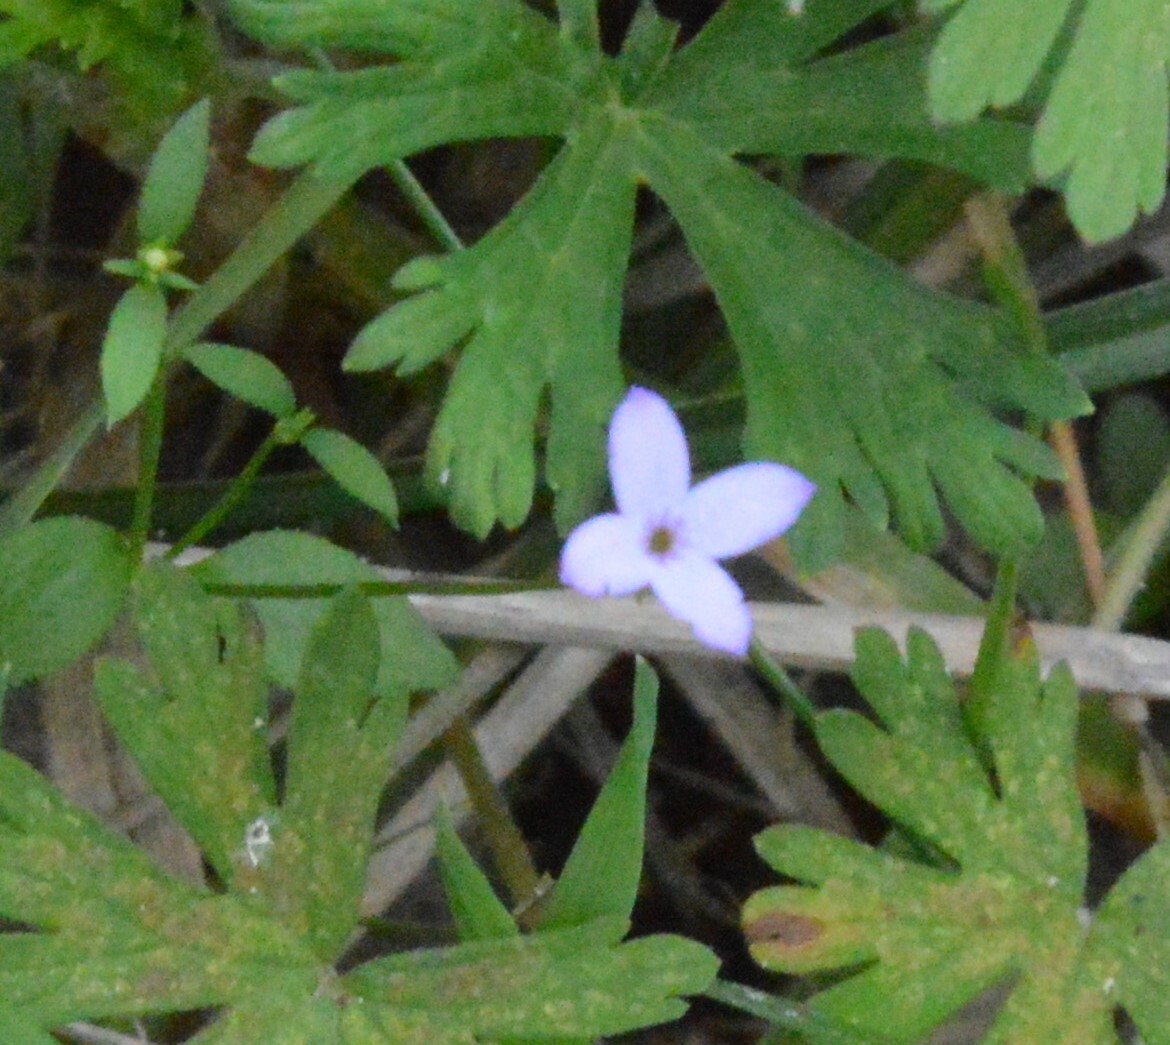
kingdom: Plantae
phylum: Tracheophyta
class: Magnoliopsida
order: Gentianales
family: Rubiaceae
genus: Houstonia
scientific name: Houstonia pusilla
